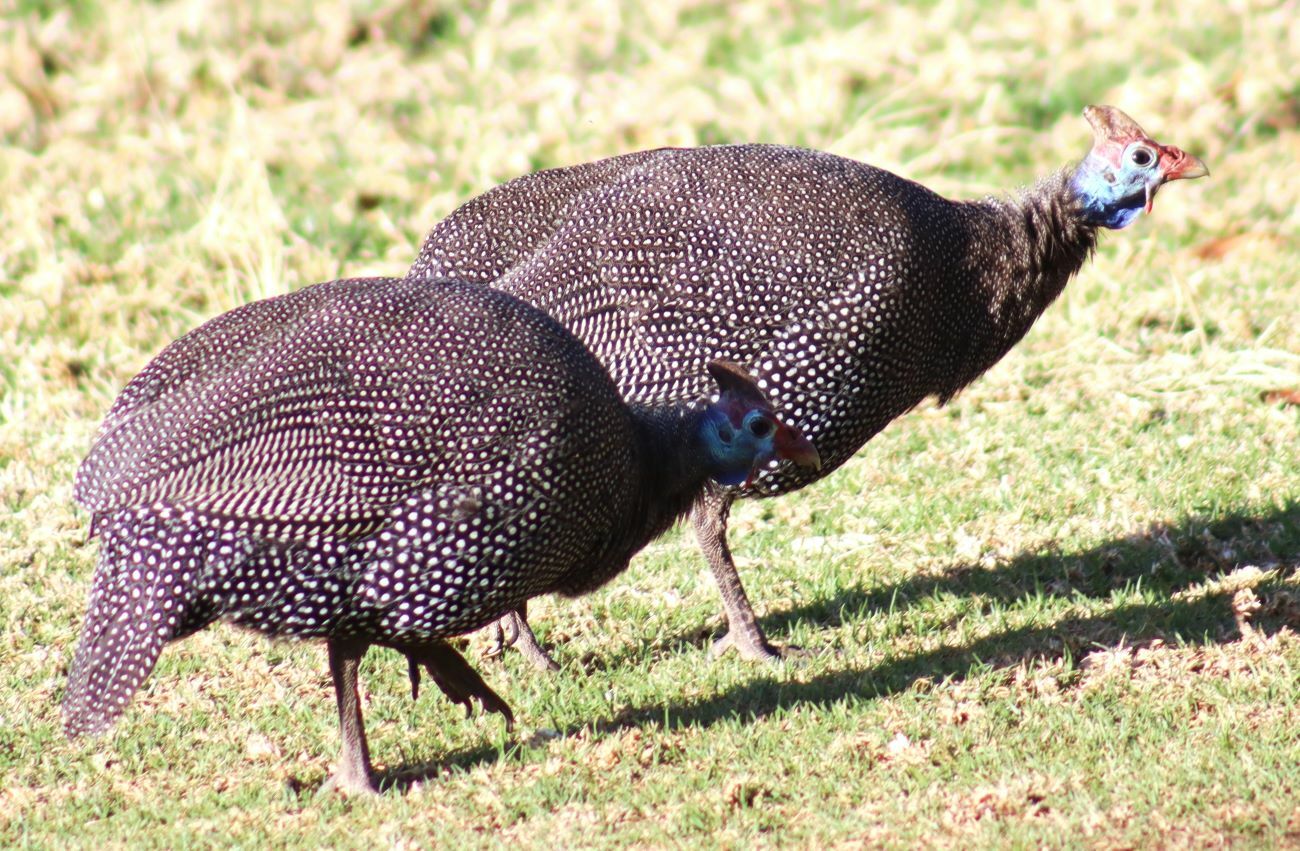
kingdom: Animalia
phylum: Chordata
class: Aves
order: Galliformes
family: Numididae
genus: Numida
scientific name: Numida meleagris
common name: Helmeted guineafowl
